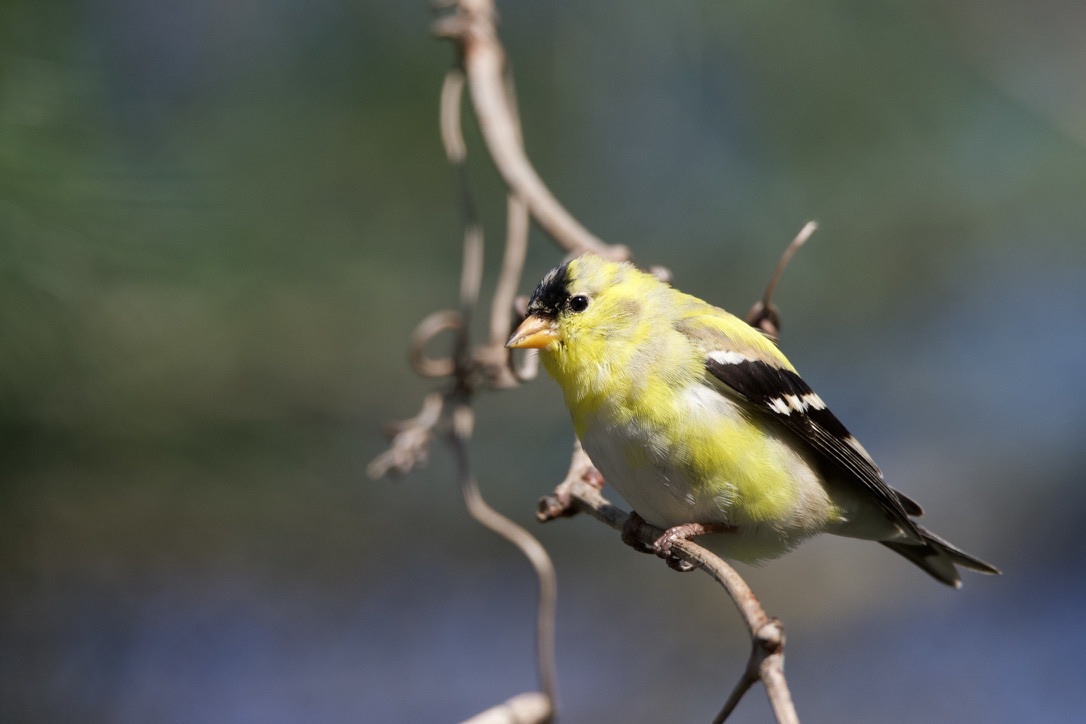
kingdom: Animalia
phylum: Chordata
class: Aves
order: Passeriformes
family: Fringillidae
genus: Spinus
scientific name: Spinus tristis
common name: American goldfinch
